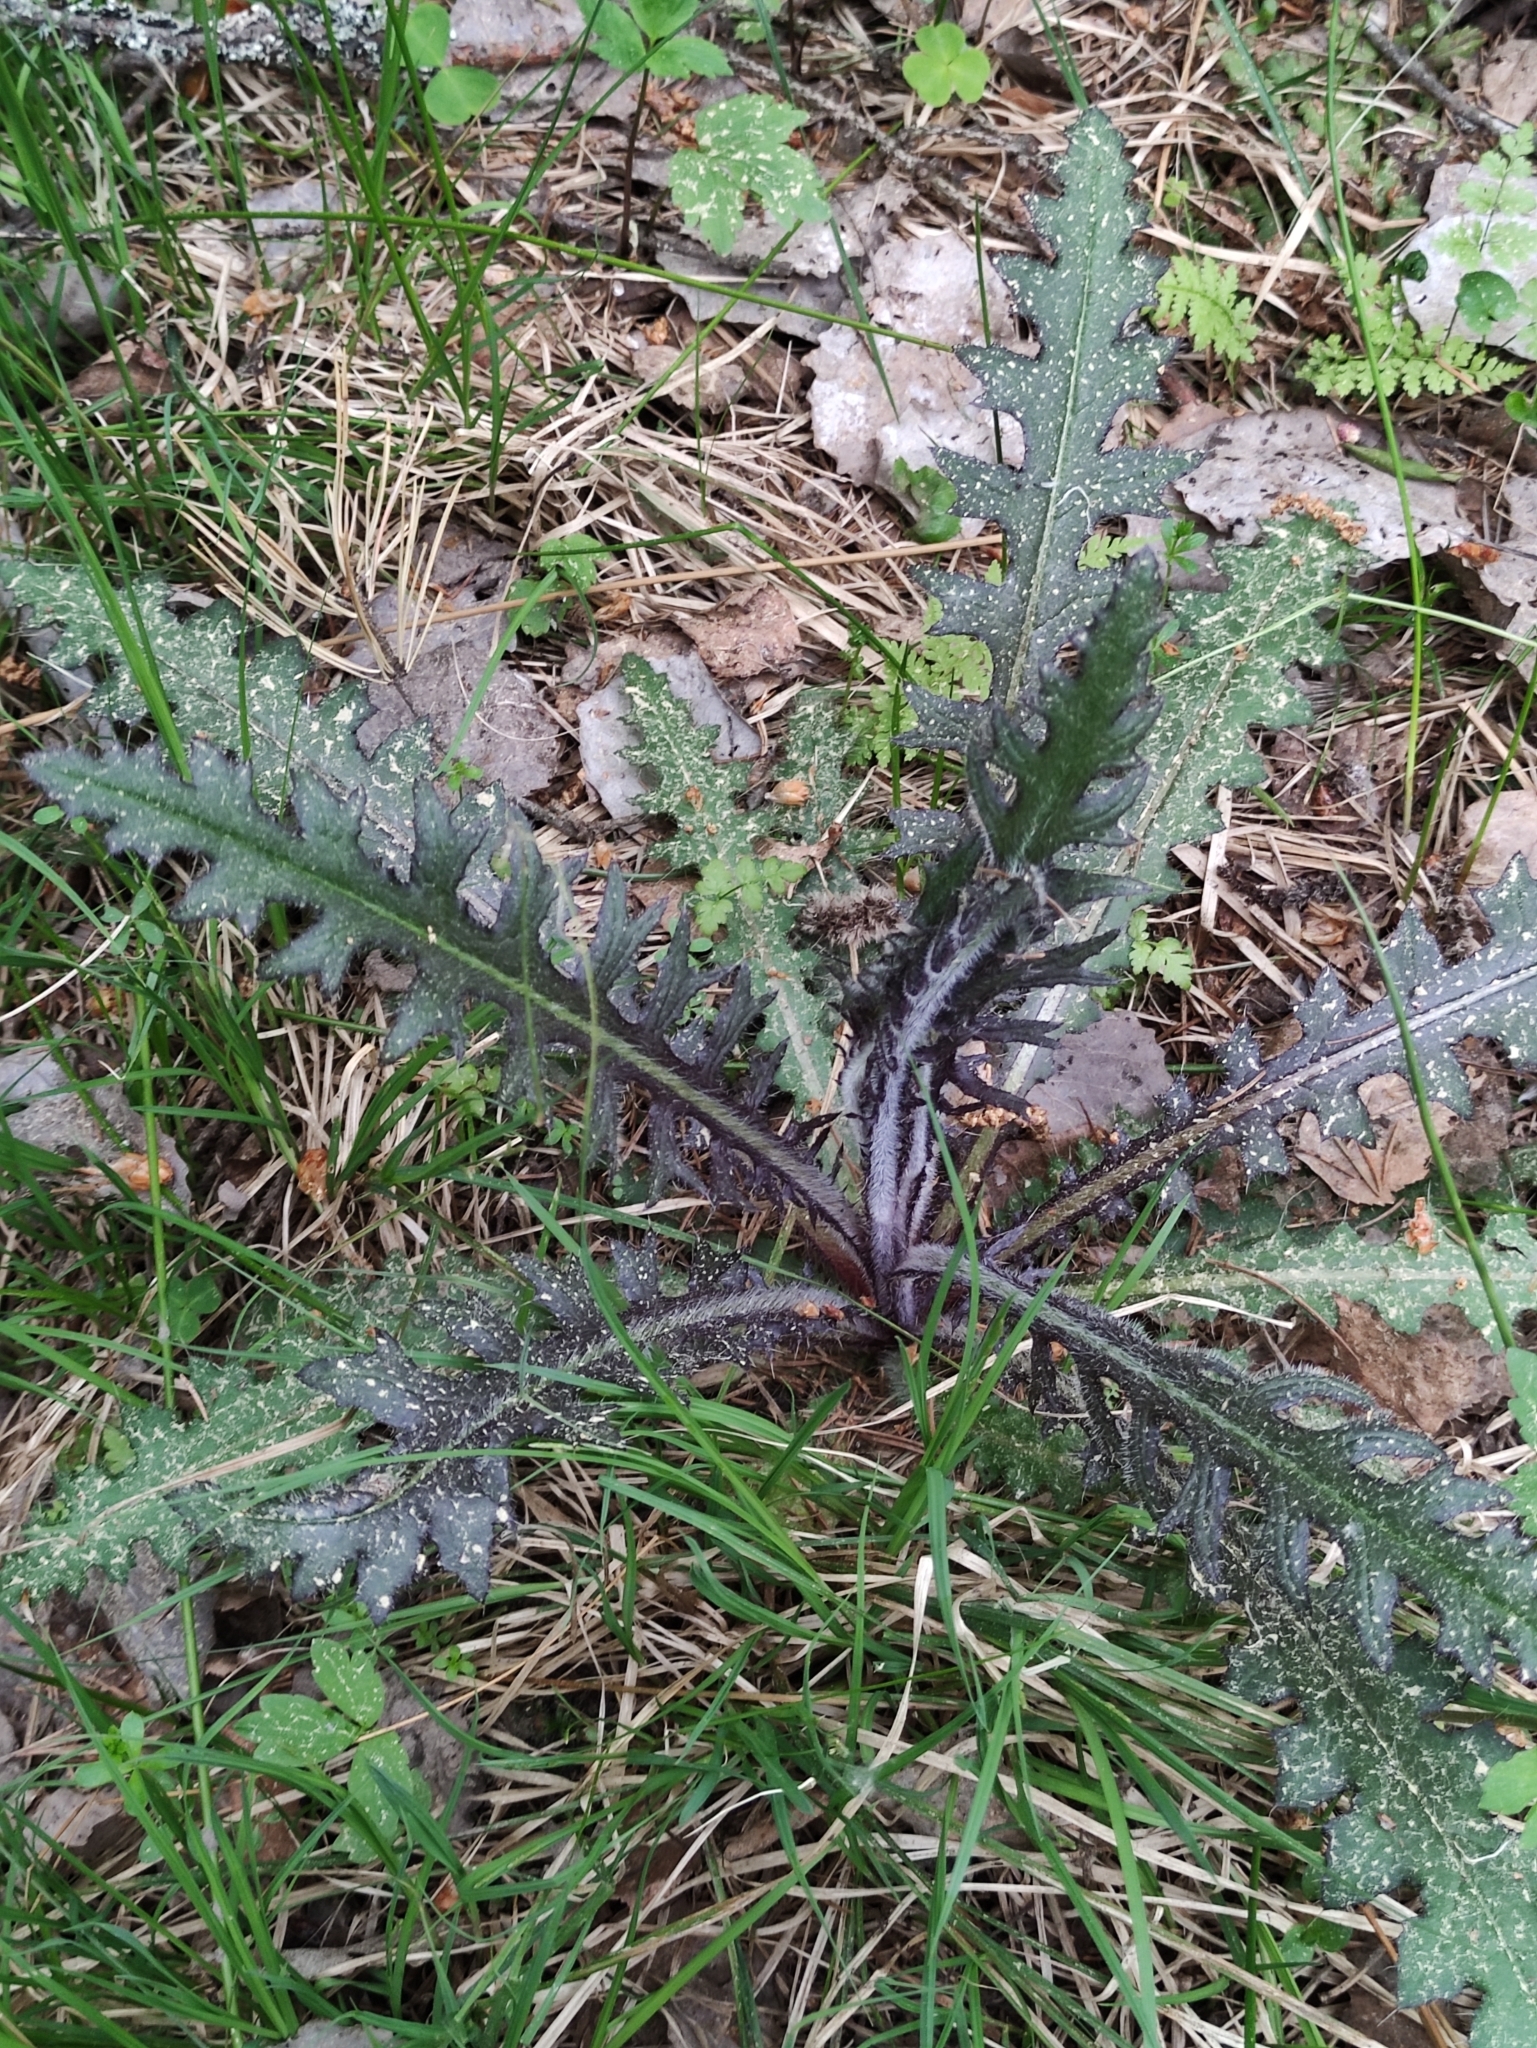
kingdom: Plantae
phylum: Tracheophyta
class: Magnoliopsida
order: Asterales
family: Asteraceae
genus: Cirsium
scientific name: Cirsium palustre
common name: Marsh thistle
